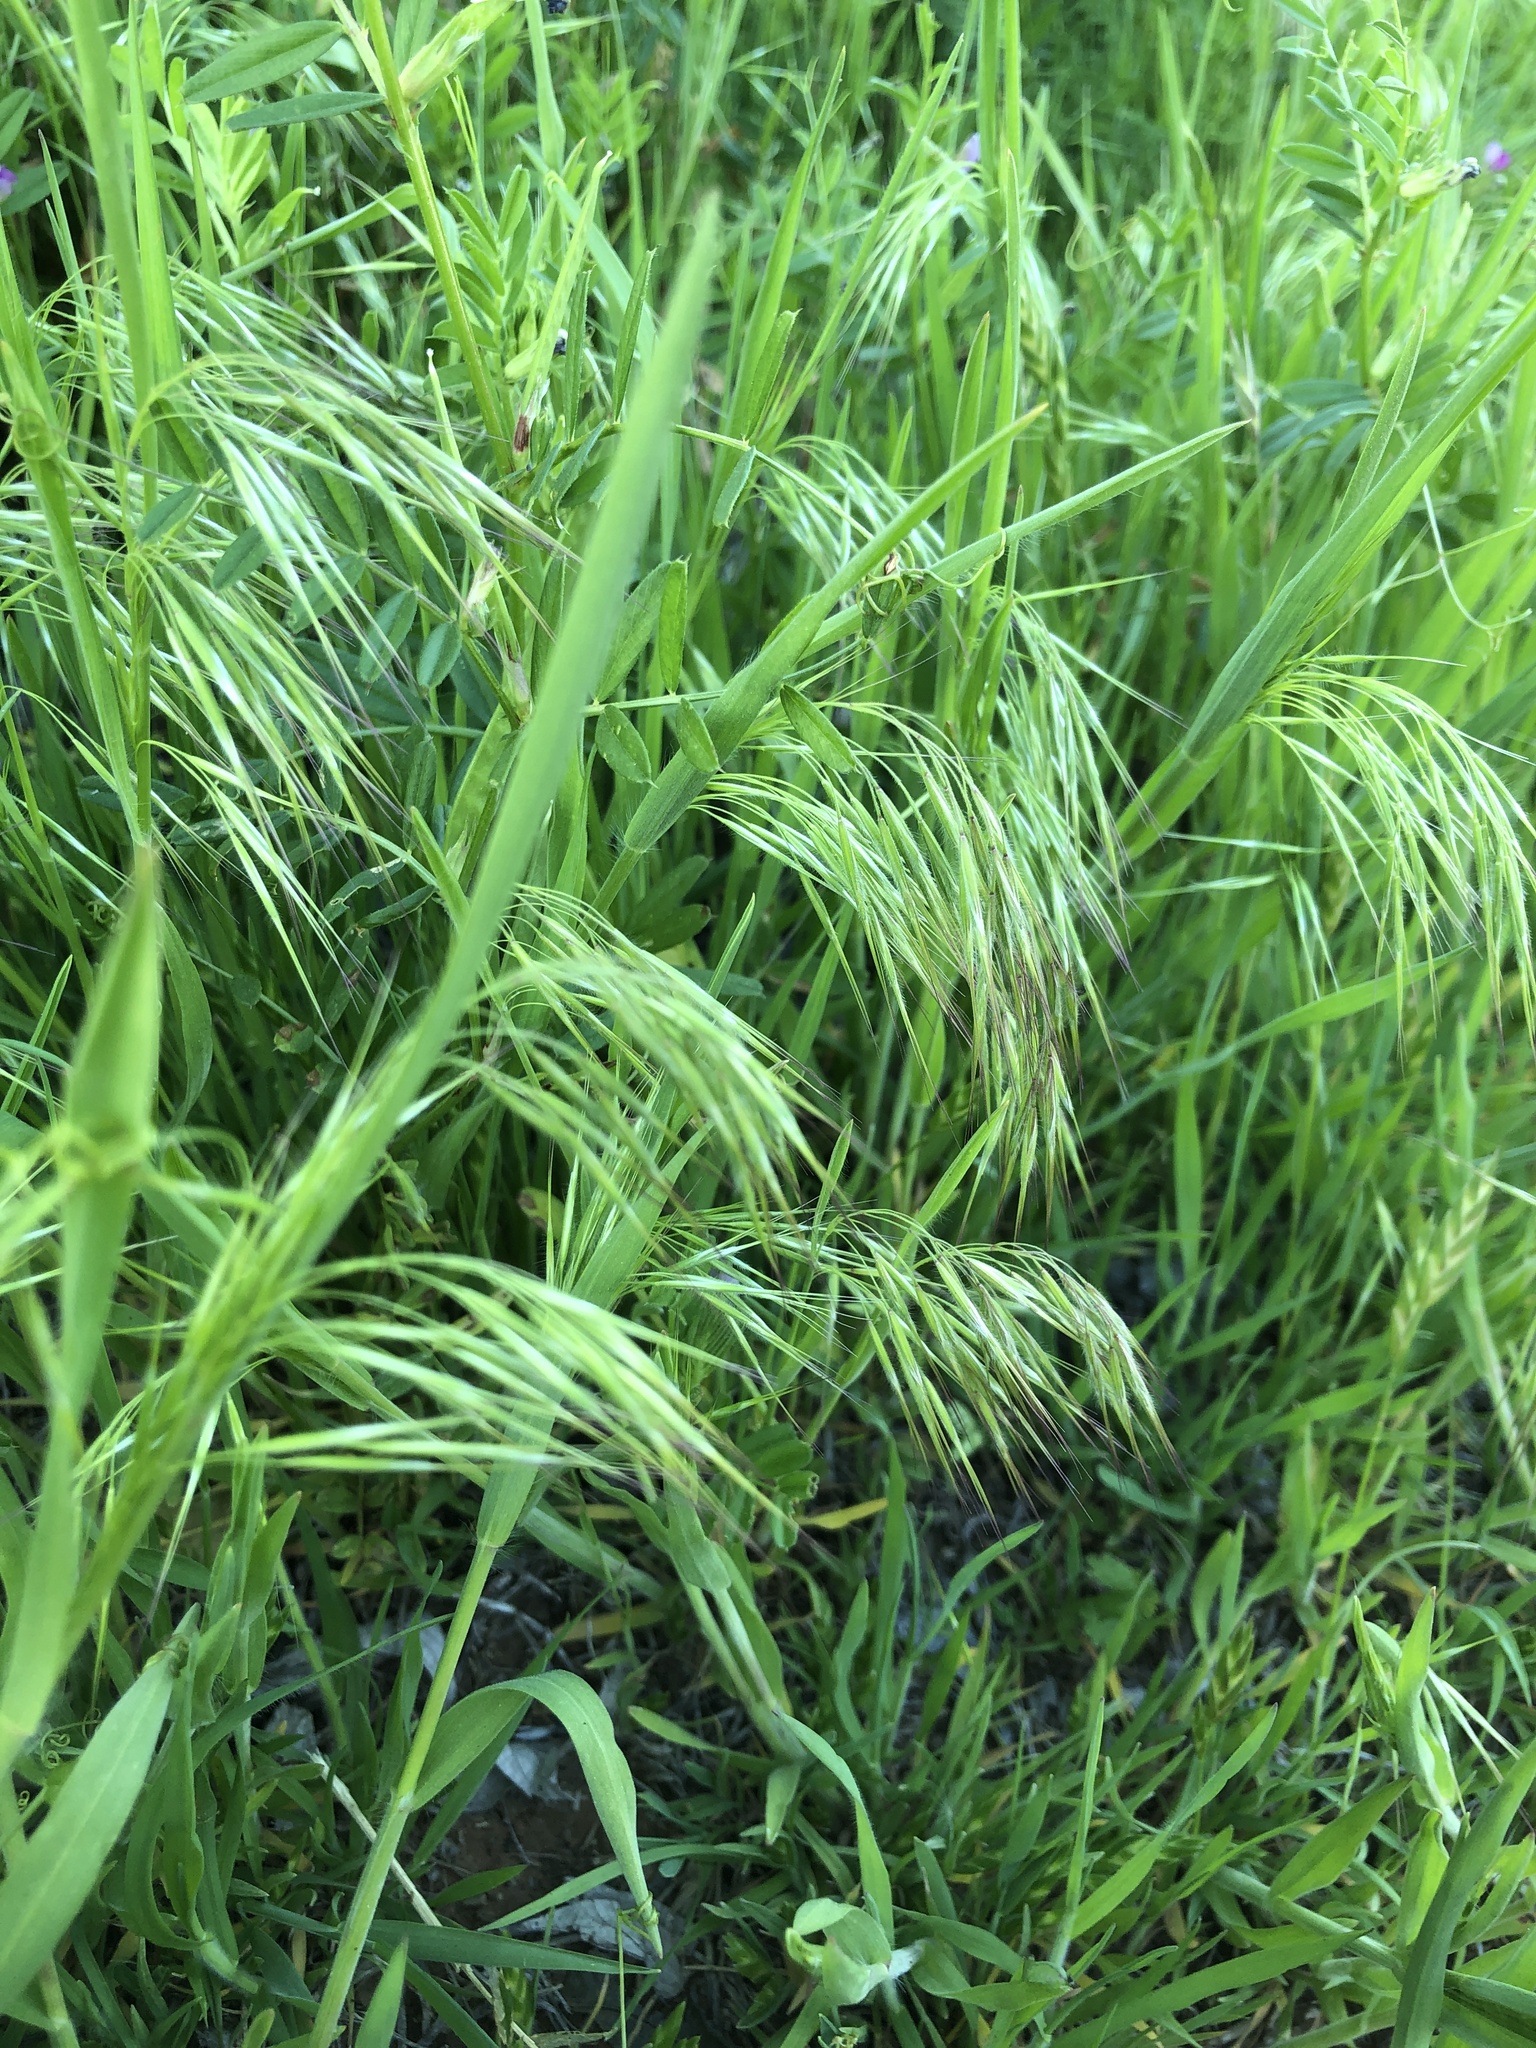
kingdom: Plantae
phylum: Tracheophyta
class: Liliopsida
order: Poales
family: Poaceae
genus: Bromus
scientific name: Bromus tectorum
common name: Cheatgrass
